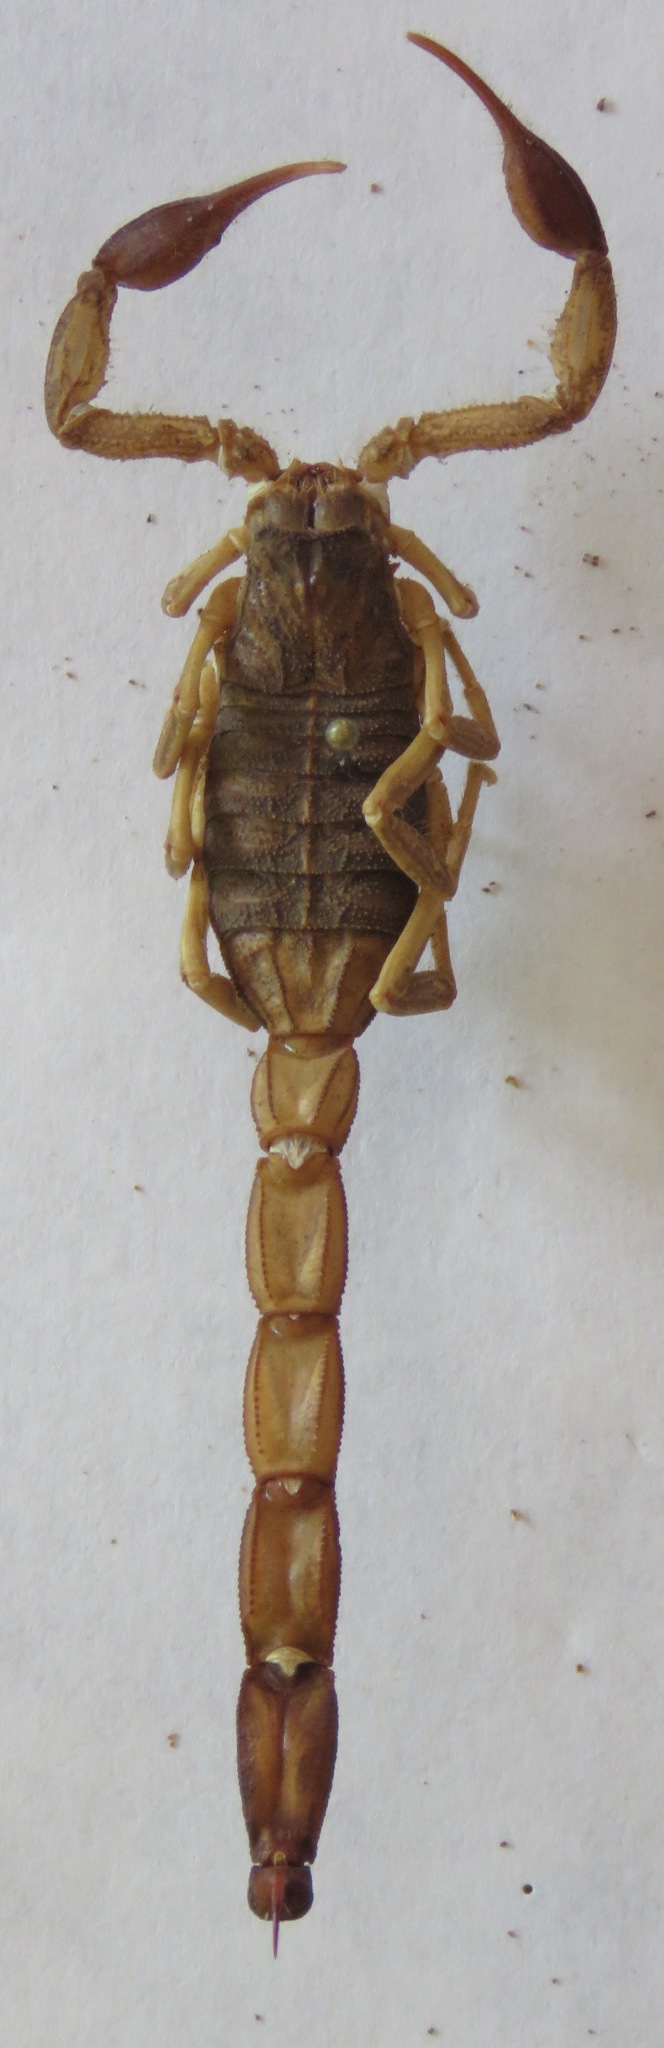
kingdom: Animalia
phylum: Arthropoda
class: Arachnida
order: Scorpiones
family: Buthidae
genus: Centruroides
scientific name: Centruroides edwardsii
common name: Scorpions
